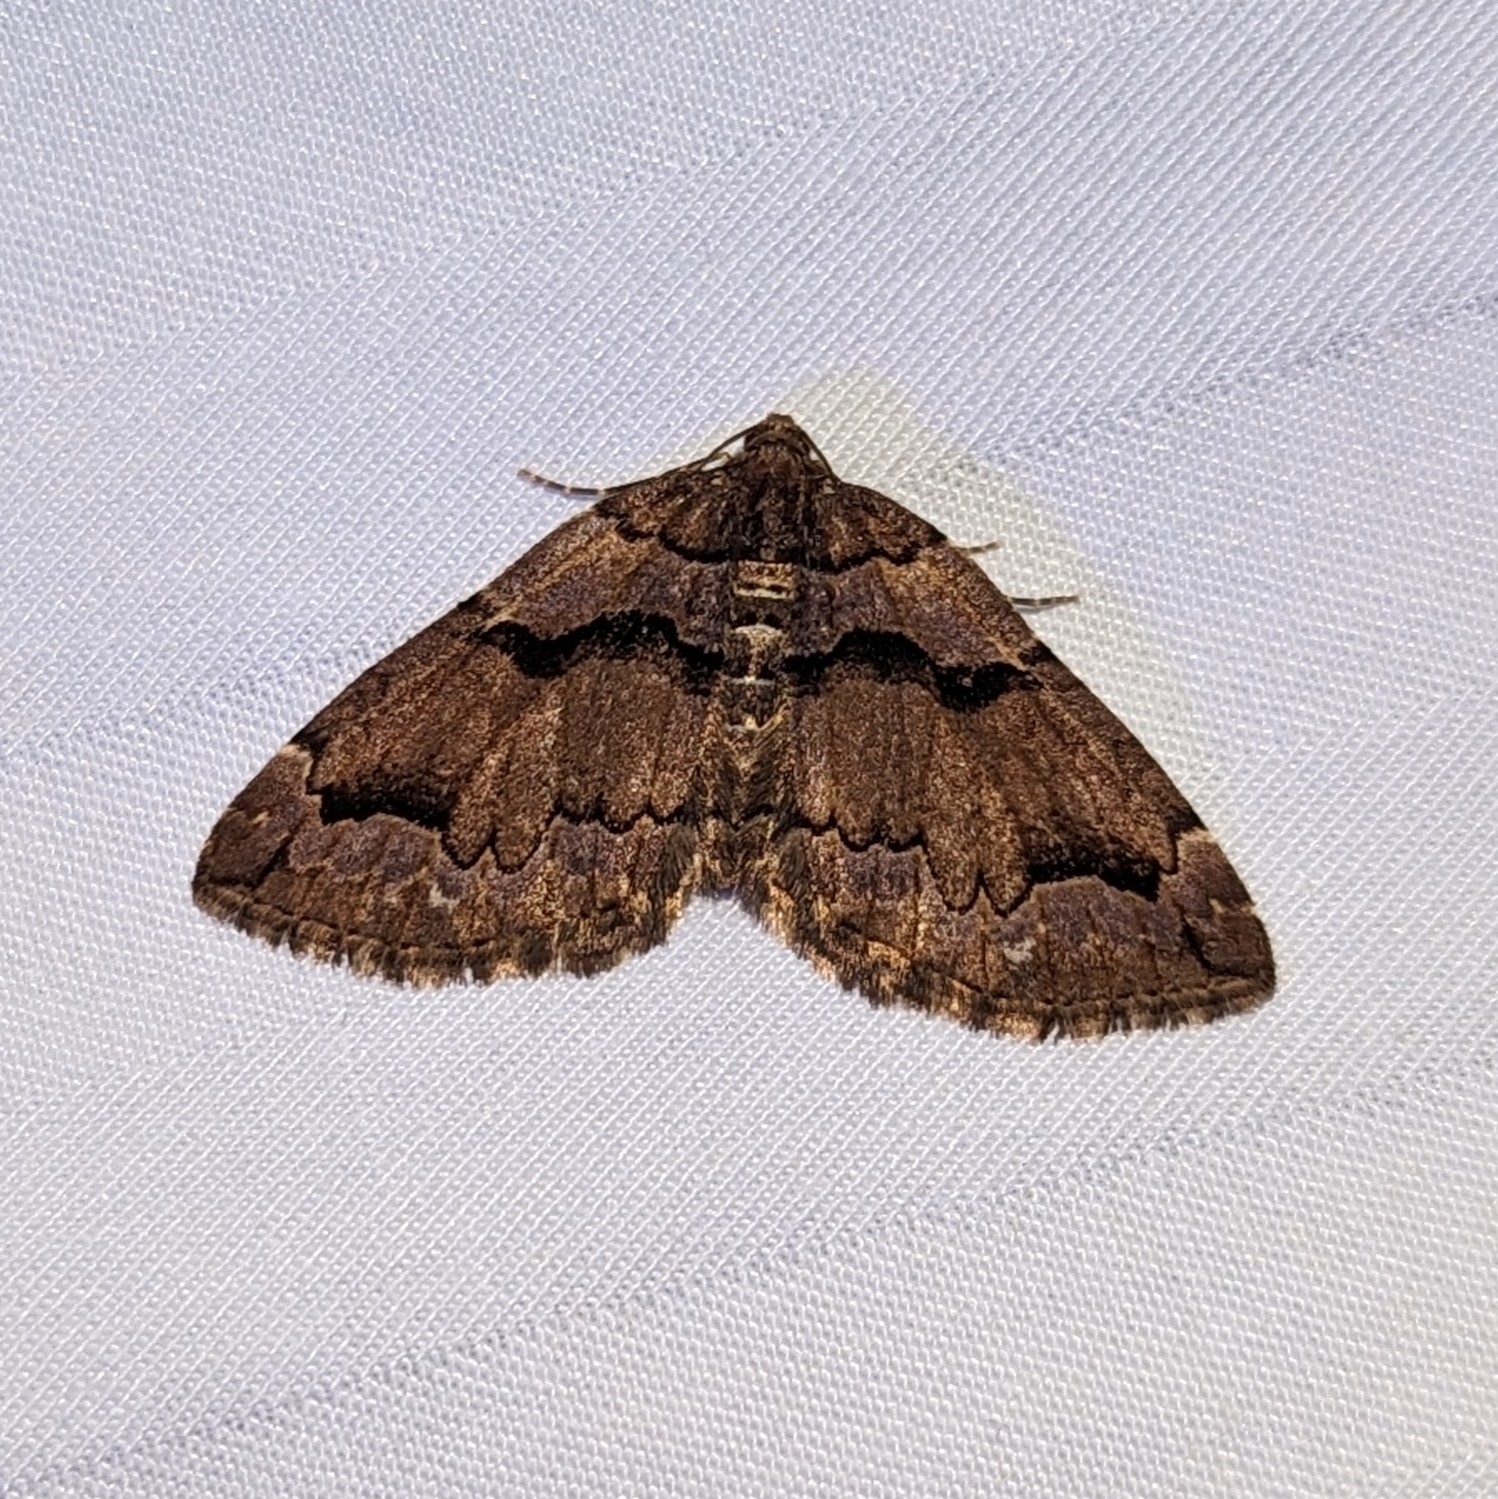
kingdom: Animalia
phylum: Arthropoda
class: Insecta
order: Lepidoptera
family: Geometridae
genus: Anticlea
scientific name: Anticlea vasiliata
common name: Variable carpet
